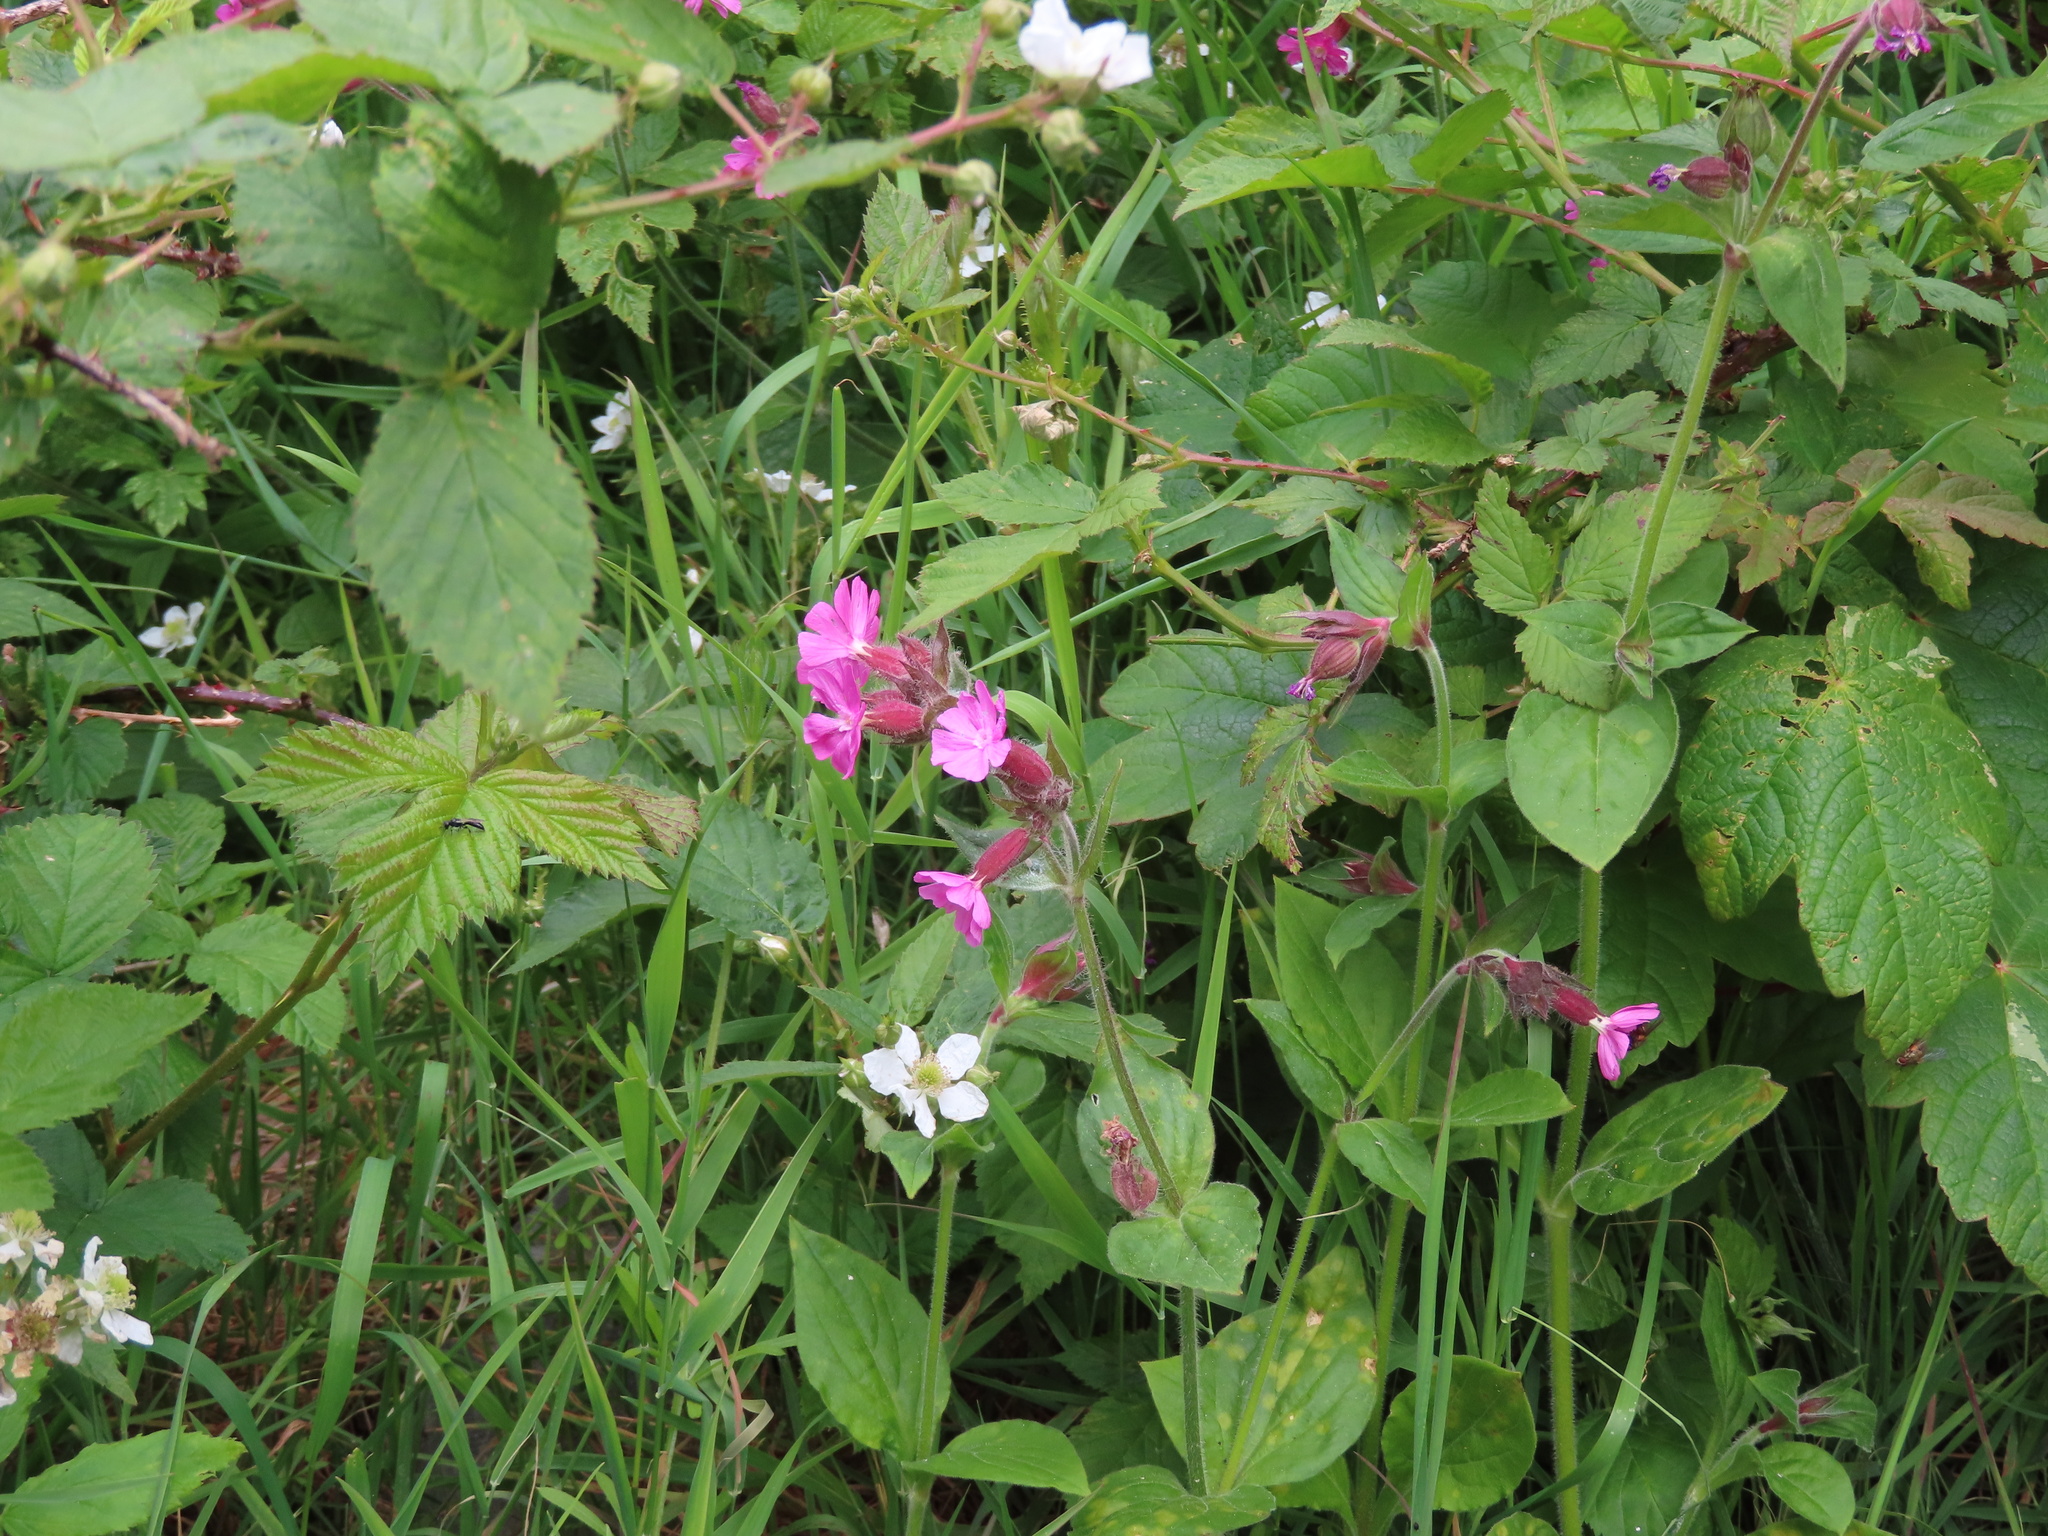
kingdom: Plantae
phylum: Tracheophyta
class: Magnoliopsida
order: Caryophyllales
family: Caryophyllaceae
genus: Silene
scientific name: Silene dioica
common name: Red campion
